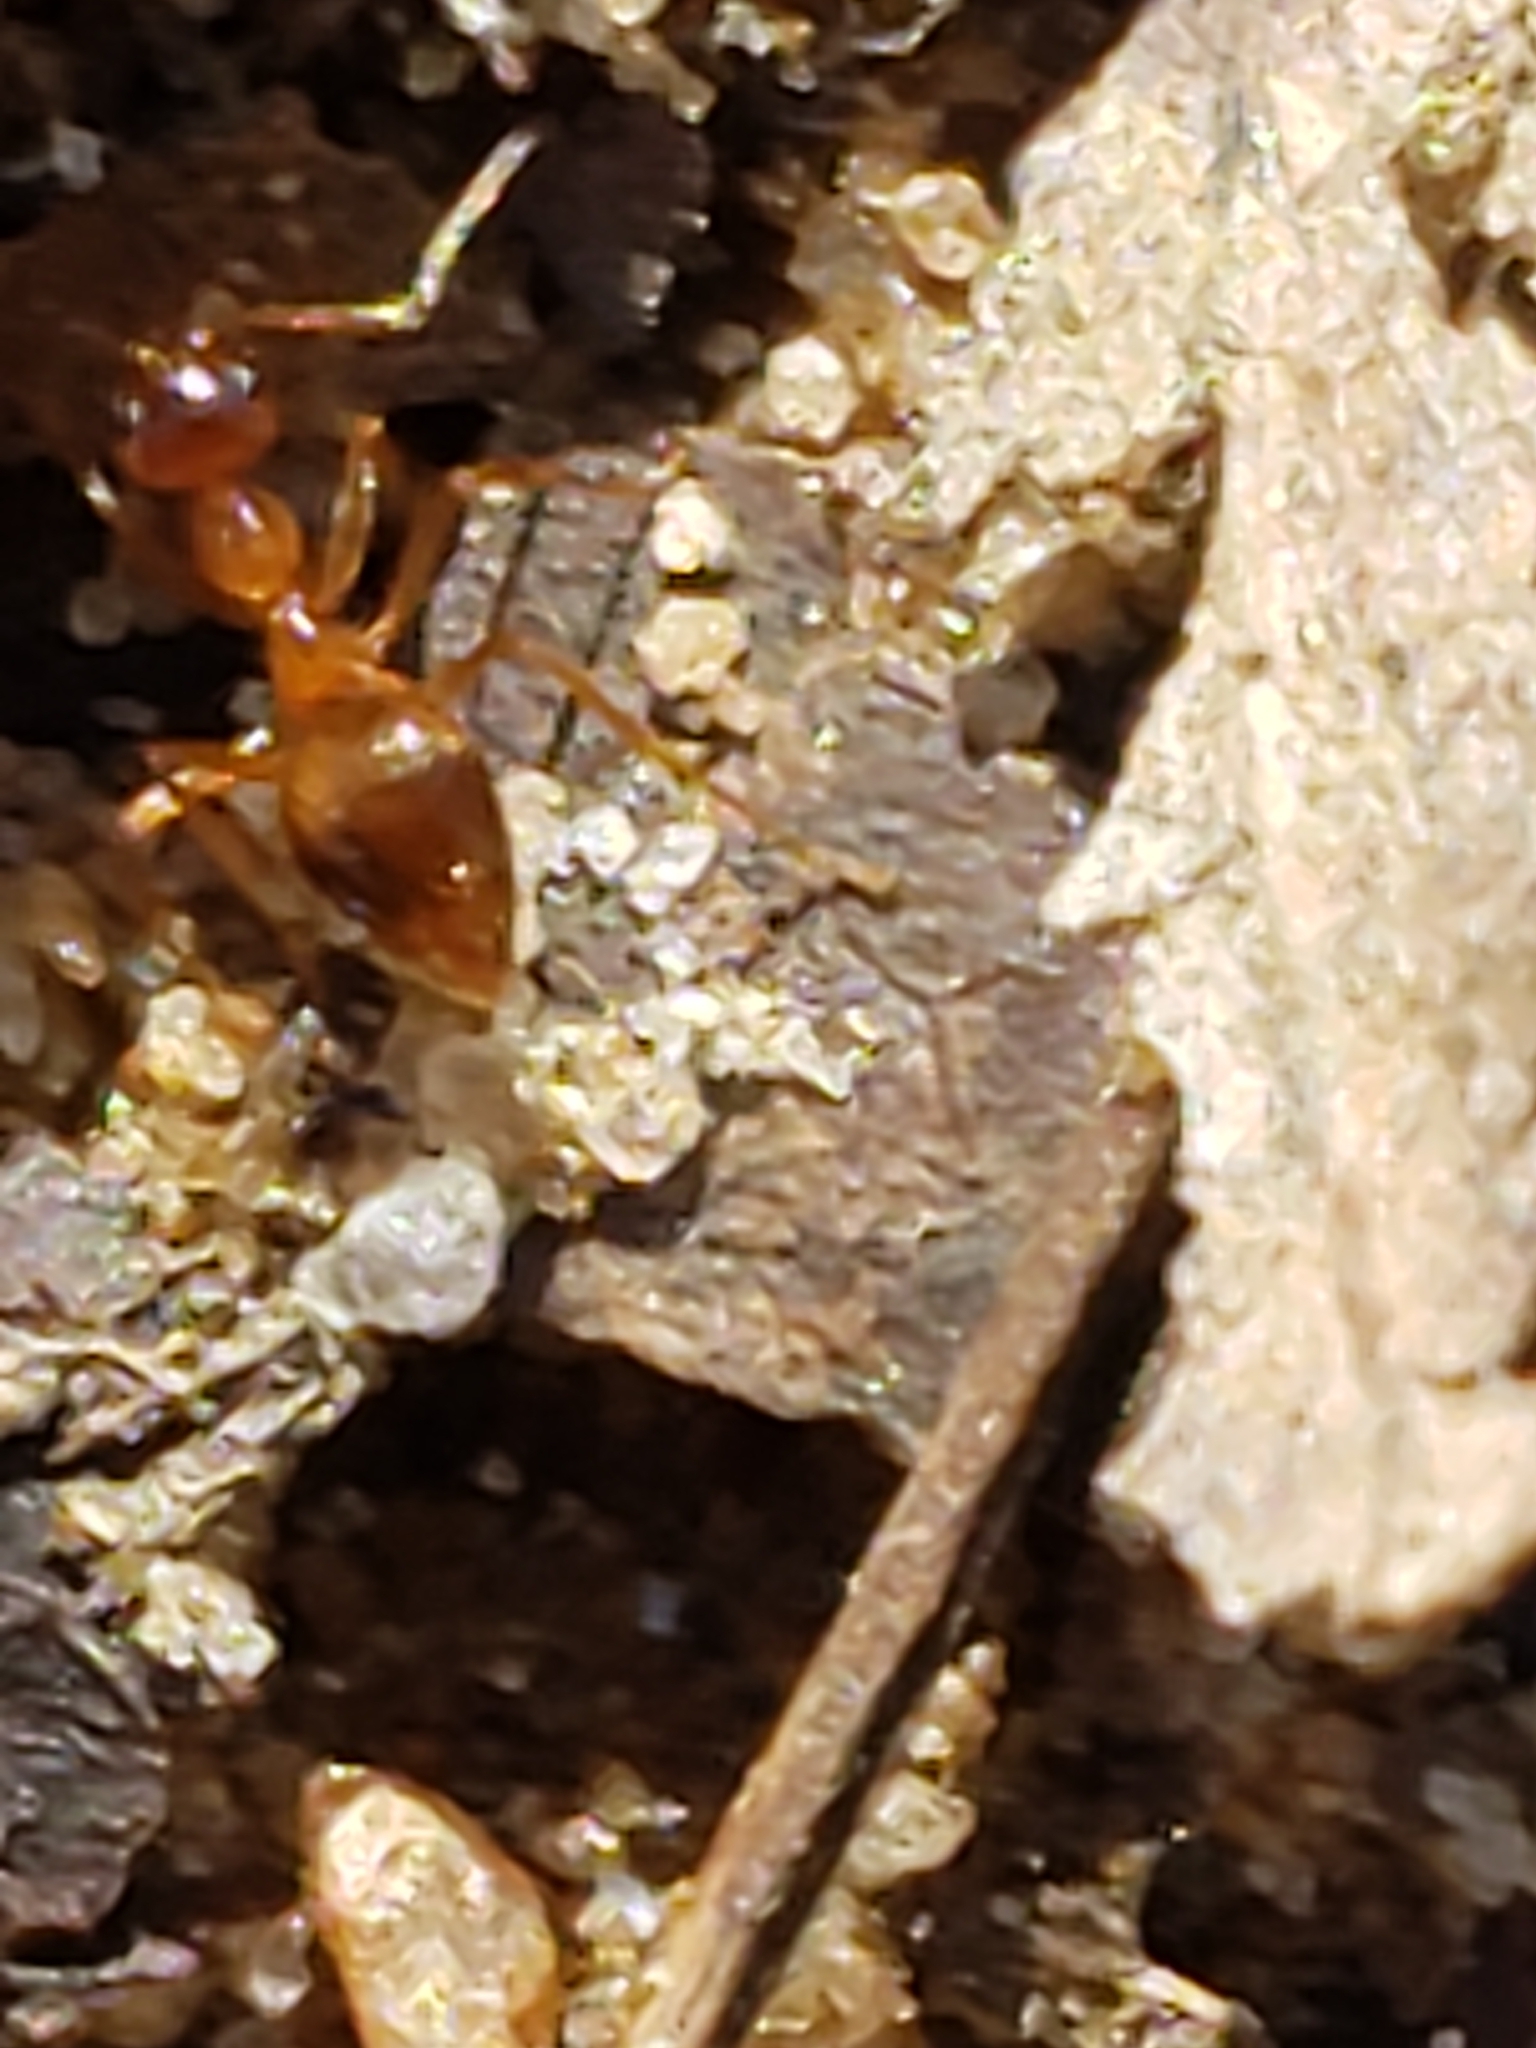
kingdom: Animalia
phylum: Arthropoda
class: Insecta
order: Hymenoptera
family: Formicidae
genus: Prenolepis
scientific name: Prenolepis imparis
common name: Small honey ant
